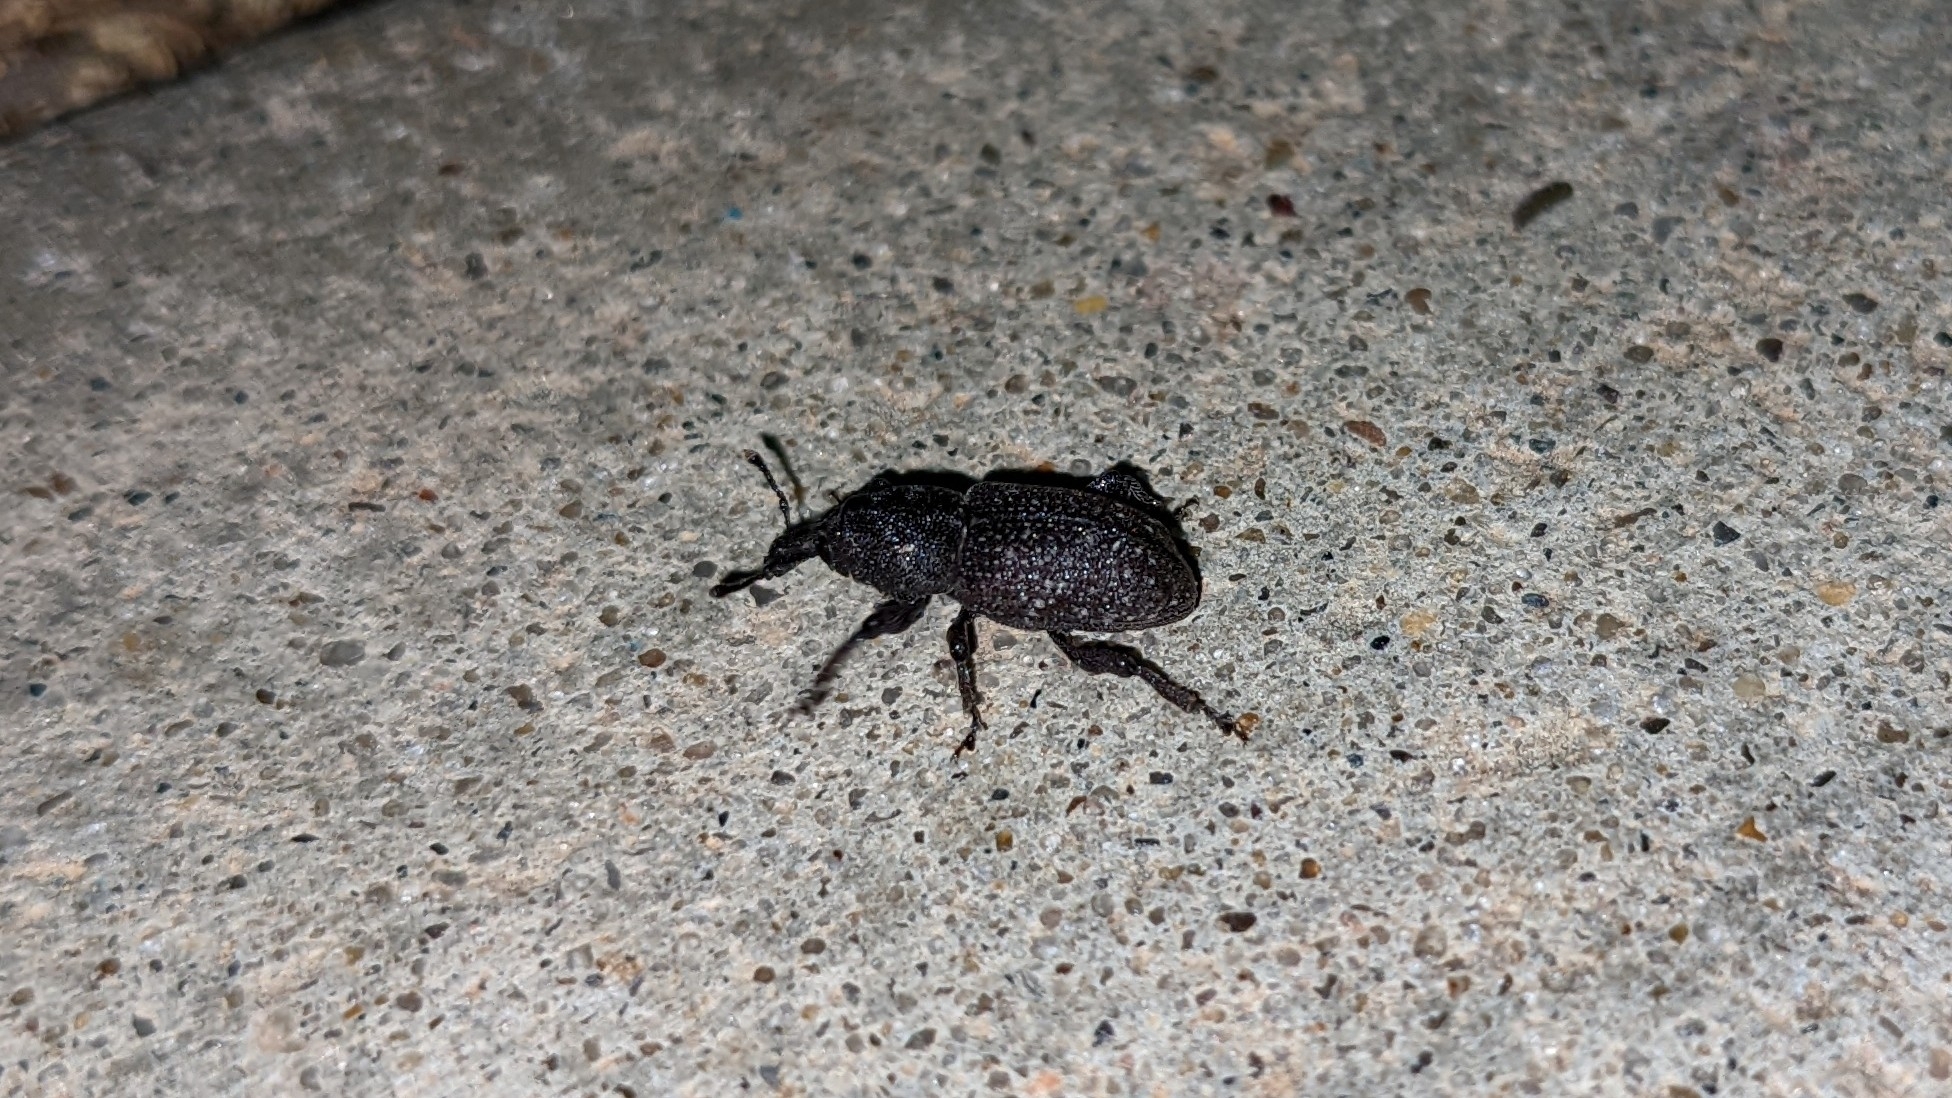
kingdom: Animalia
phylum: Arthropoda
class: Insecta
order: Coleoptera
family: Curculionidae
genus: Pachylobius
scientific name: Pachylobius picivorus
